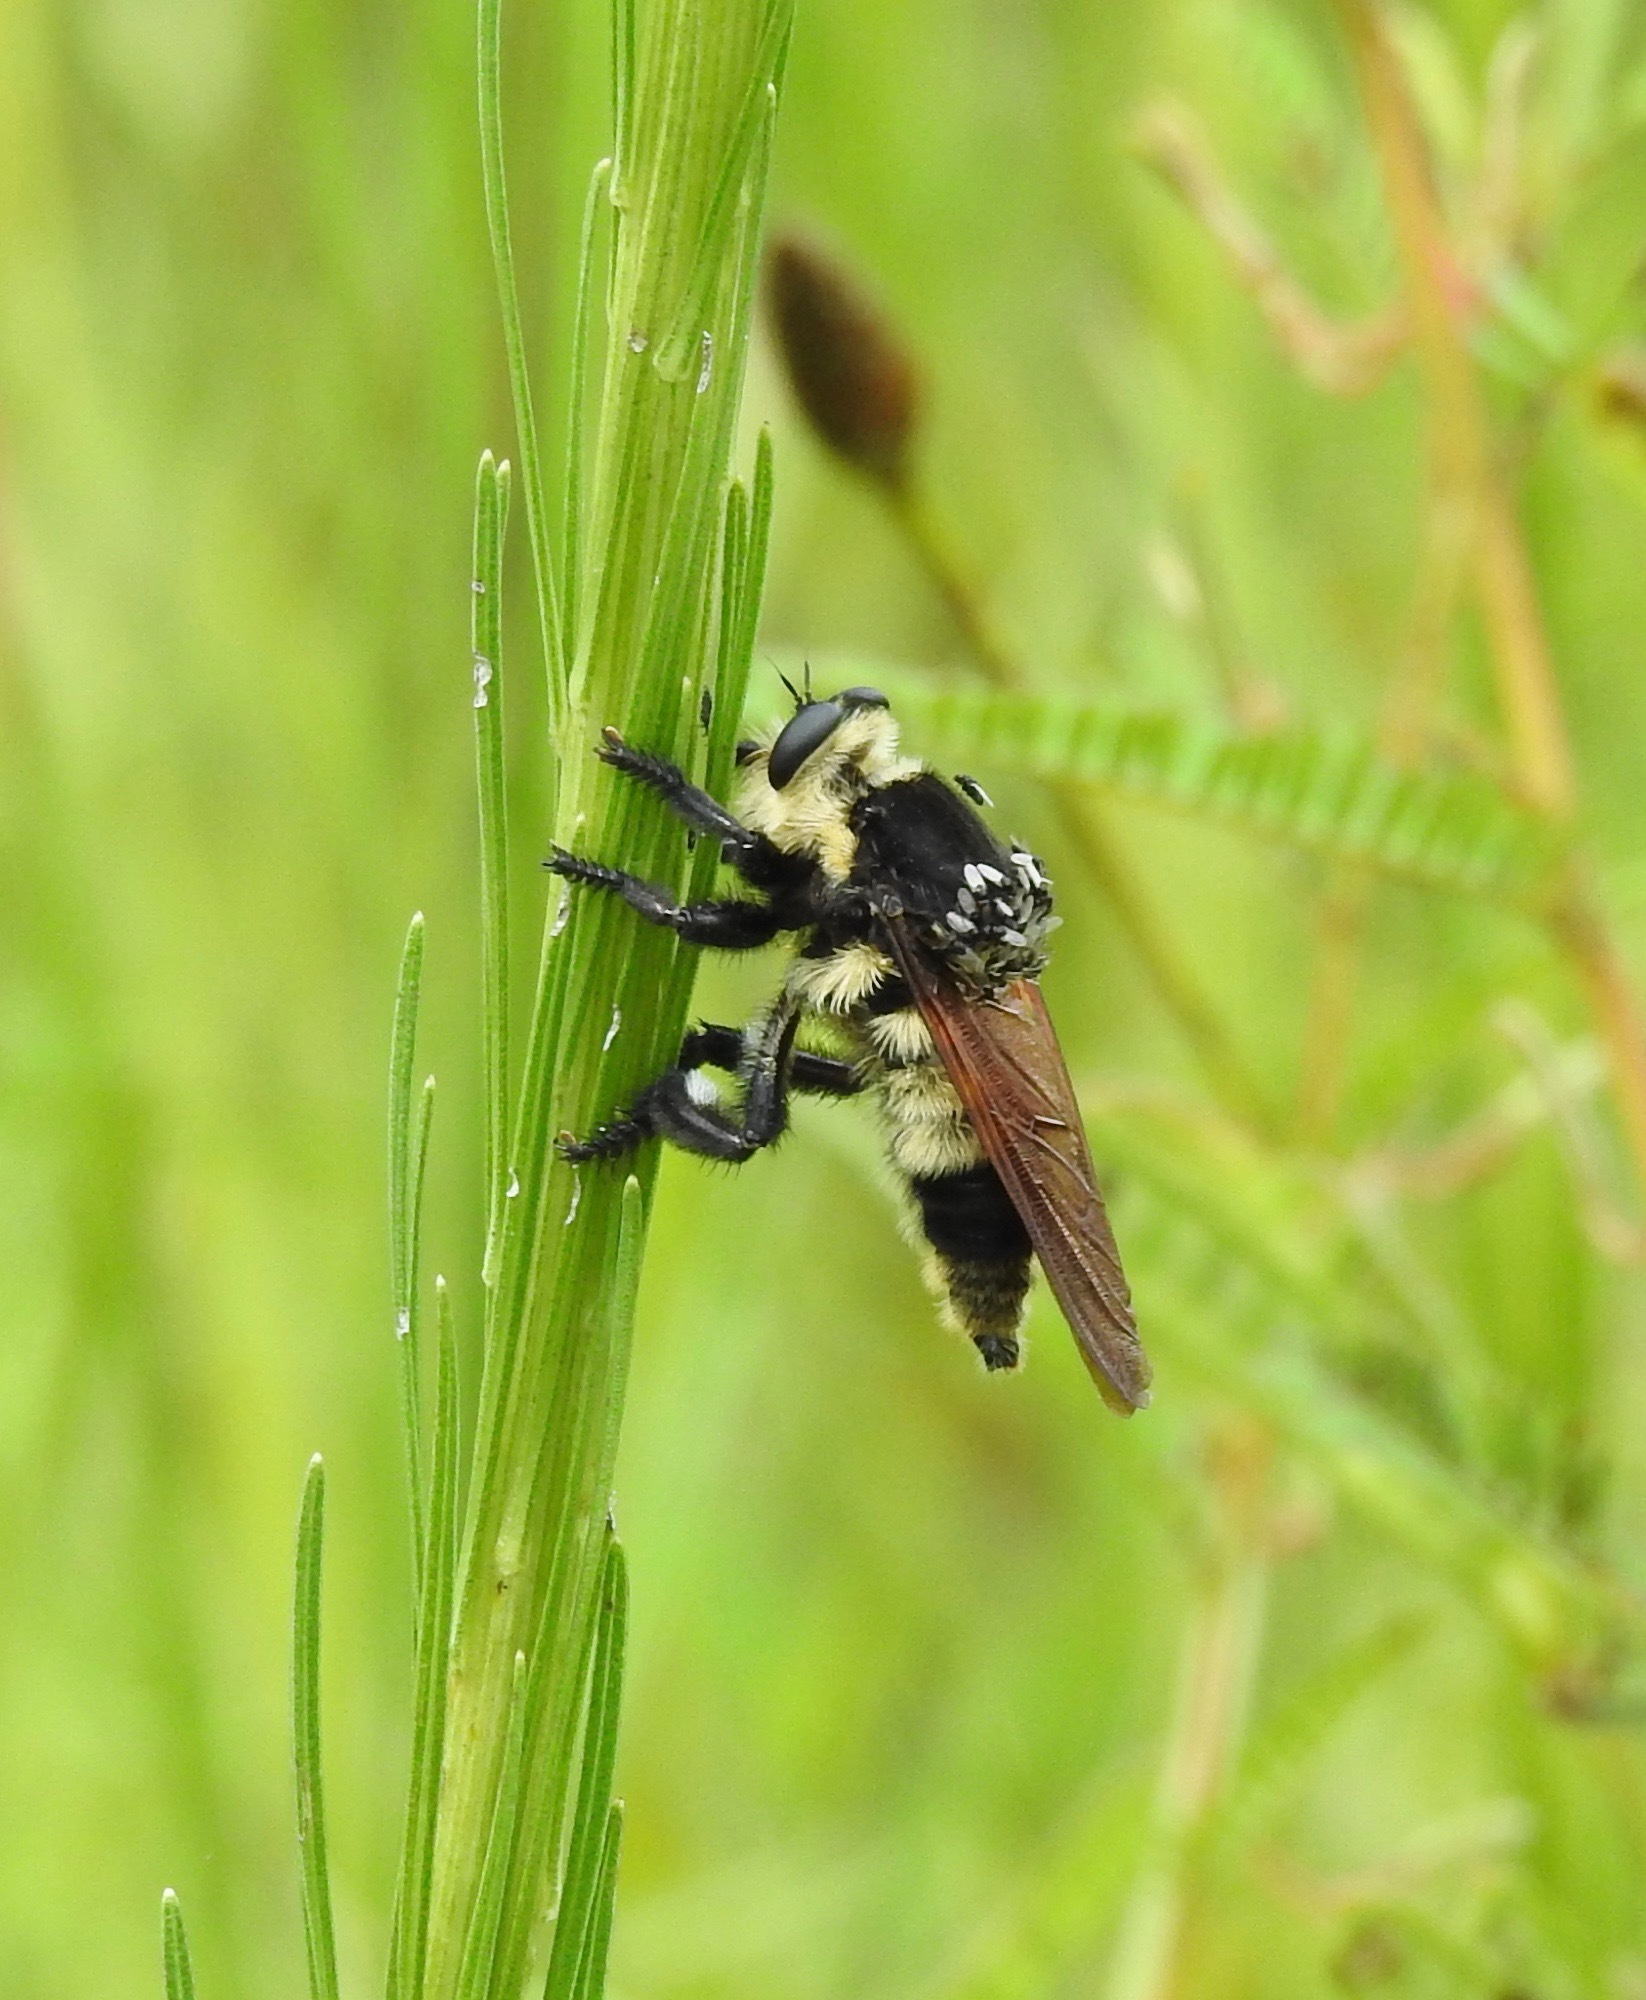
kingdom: Animalia
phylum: Arthropoda
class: Insecta
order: Diptera
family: Asilidae
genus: Mallophora
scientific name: Mallophora bomboides
